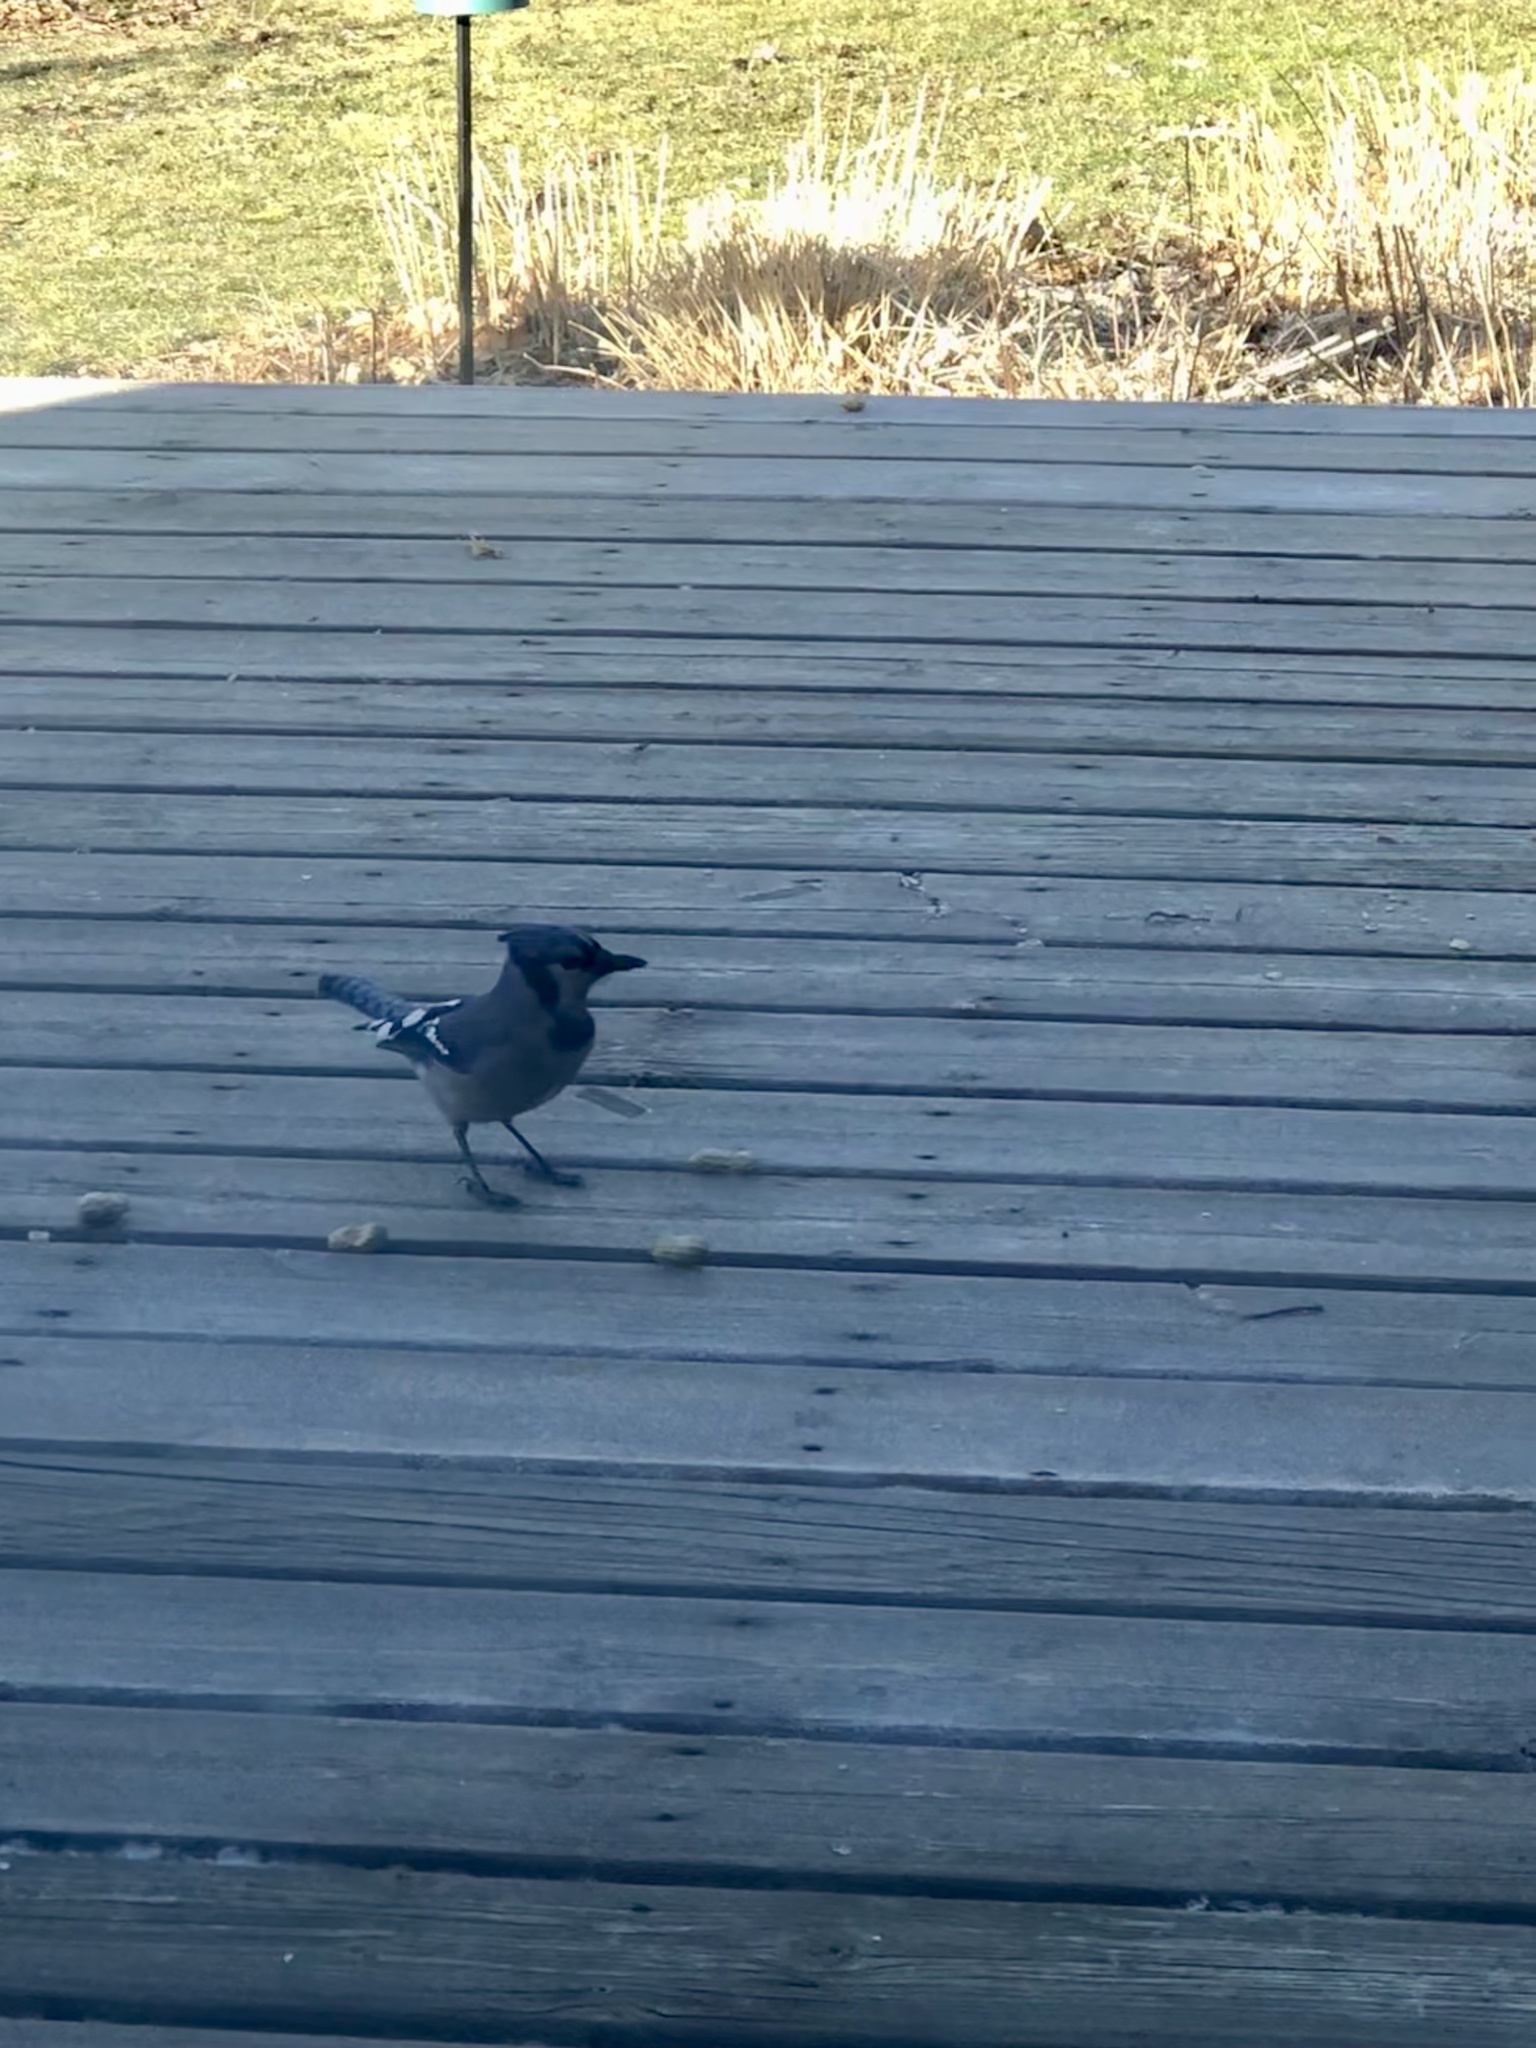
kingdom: Animalia
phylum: Chordata
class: Aves
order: Passeriformes
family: Corvidae
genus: Cyanocitta
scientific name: Cyanocitta cristata
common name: Blue jay
